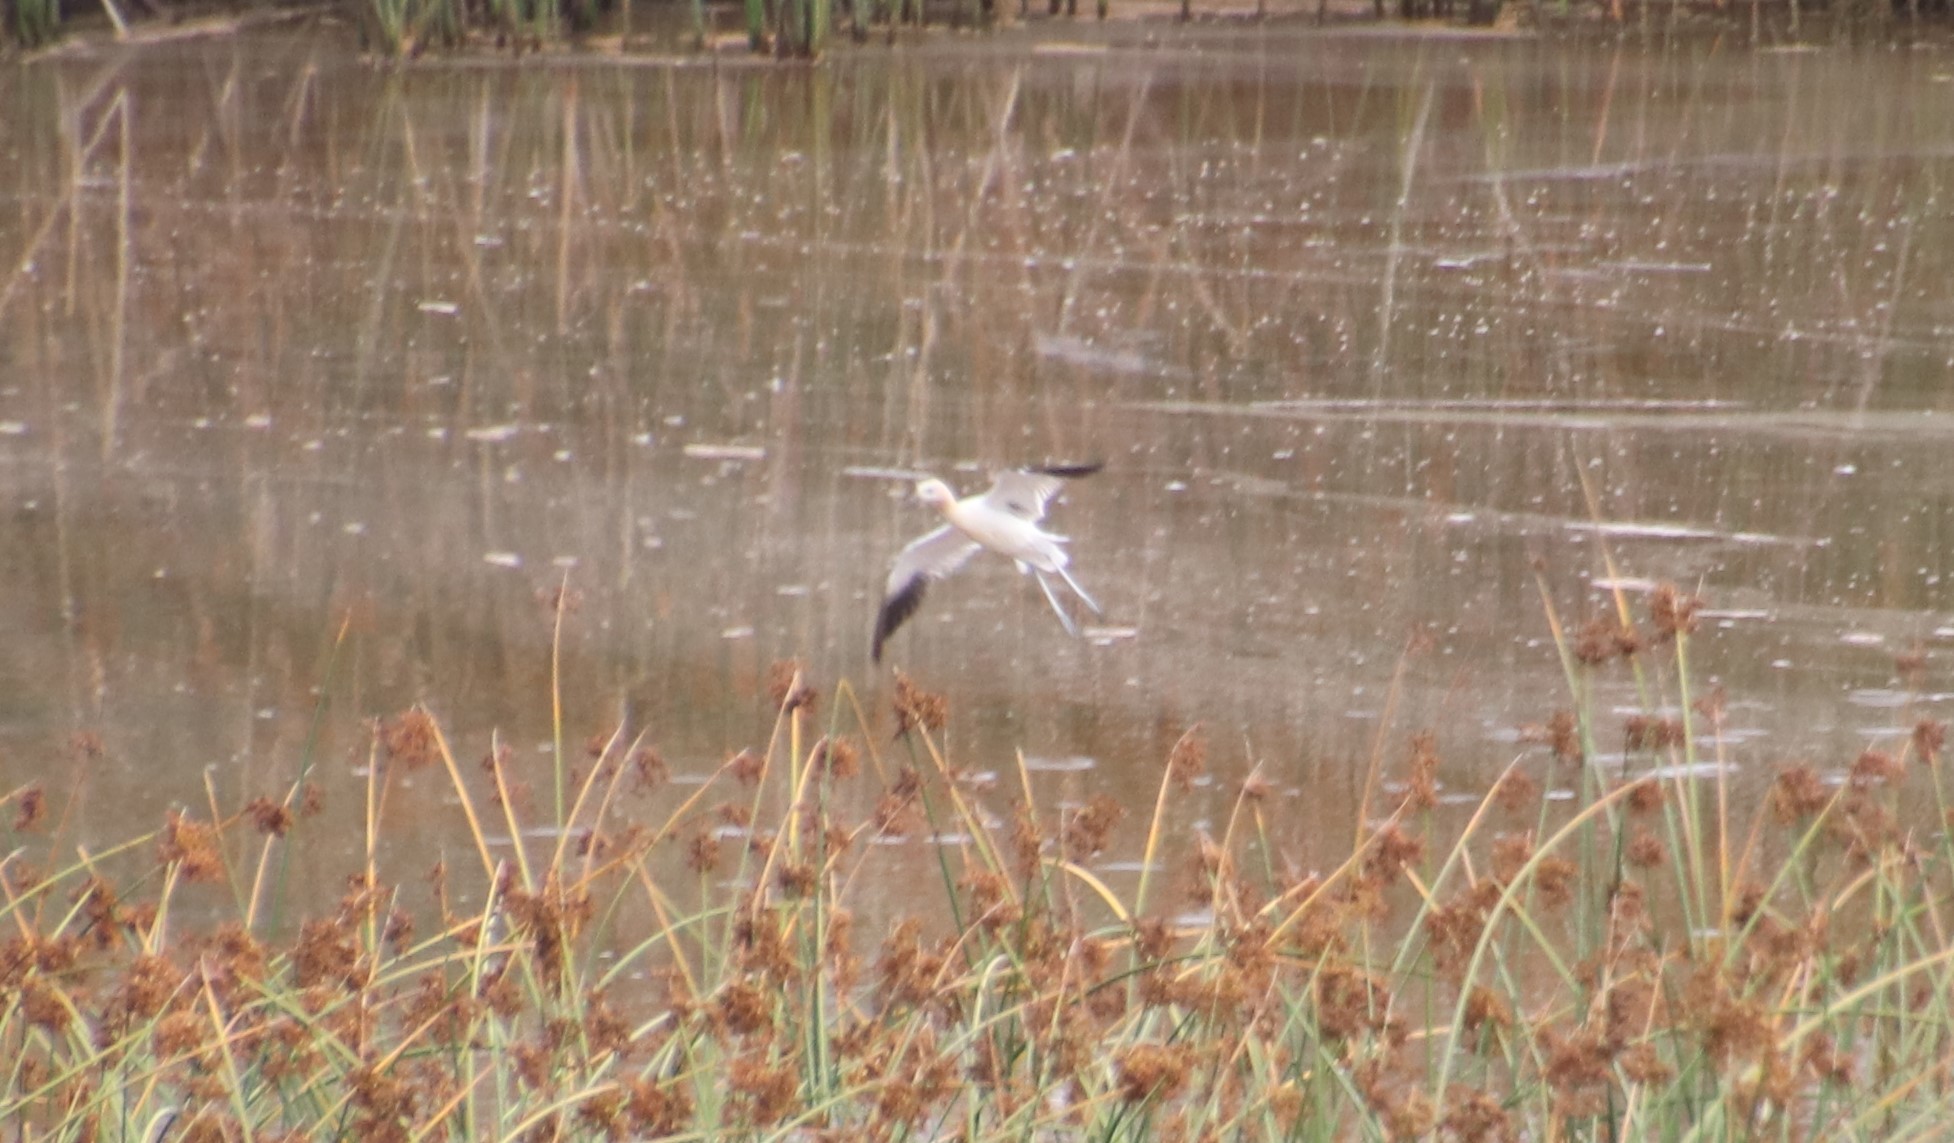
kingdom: Animalia
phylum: Chordata
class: Aves
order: Charadriiformes
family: Recurvirostridae
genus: Recurvirostra
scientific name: Recurvirostra americana
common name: American avocet
